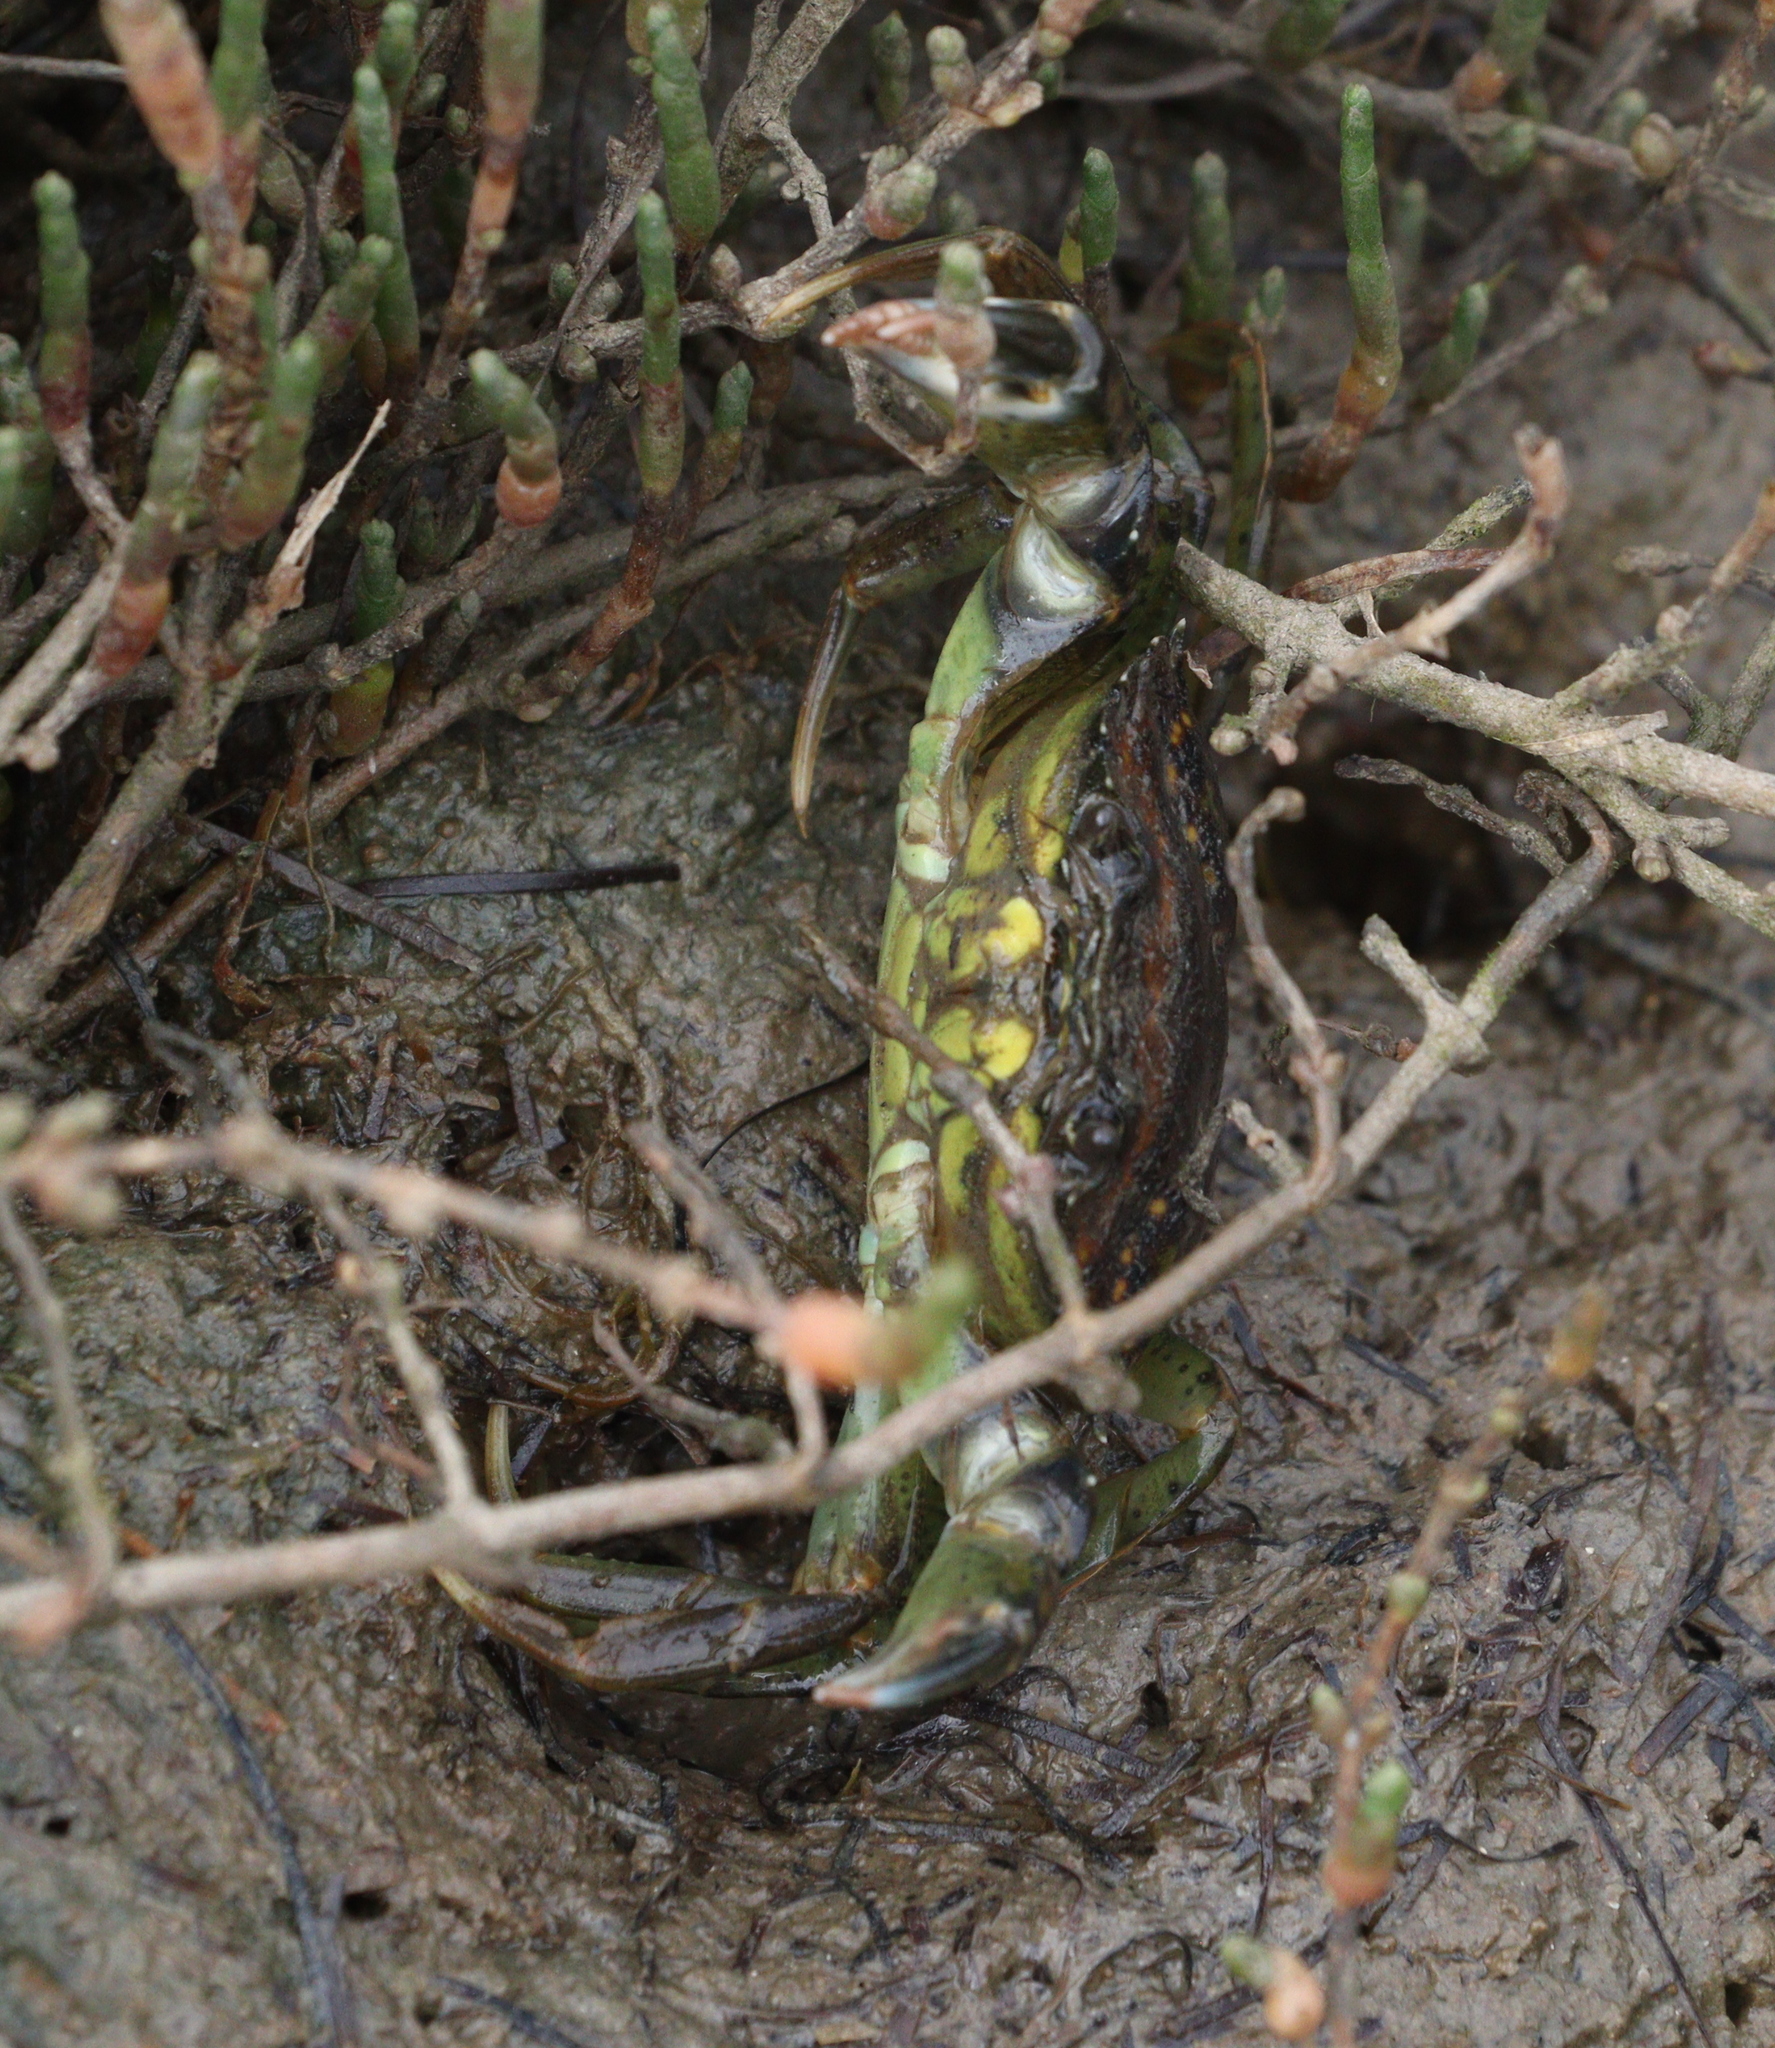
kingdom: Animalia
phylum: Arthropoda
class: Malacostraca
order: Decapoda
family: Carcinidae
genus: Carcinus
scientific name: Carcinus maenas
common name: European green crab
